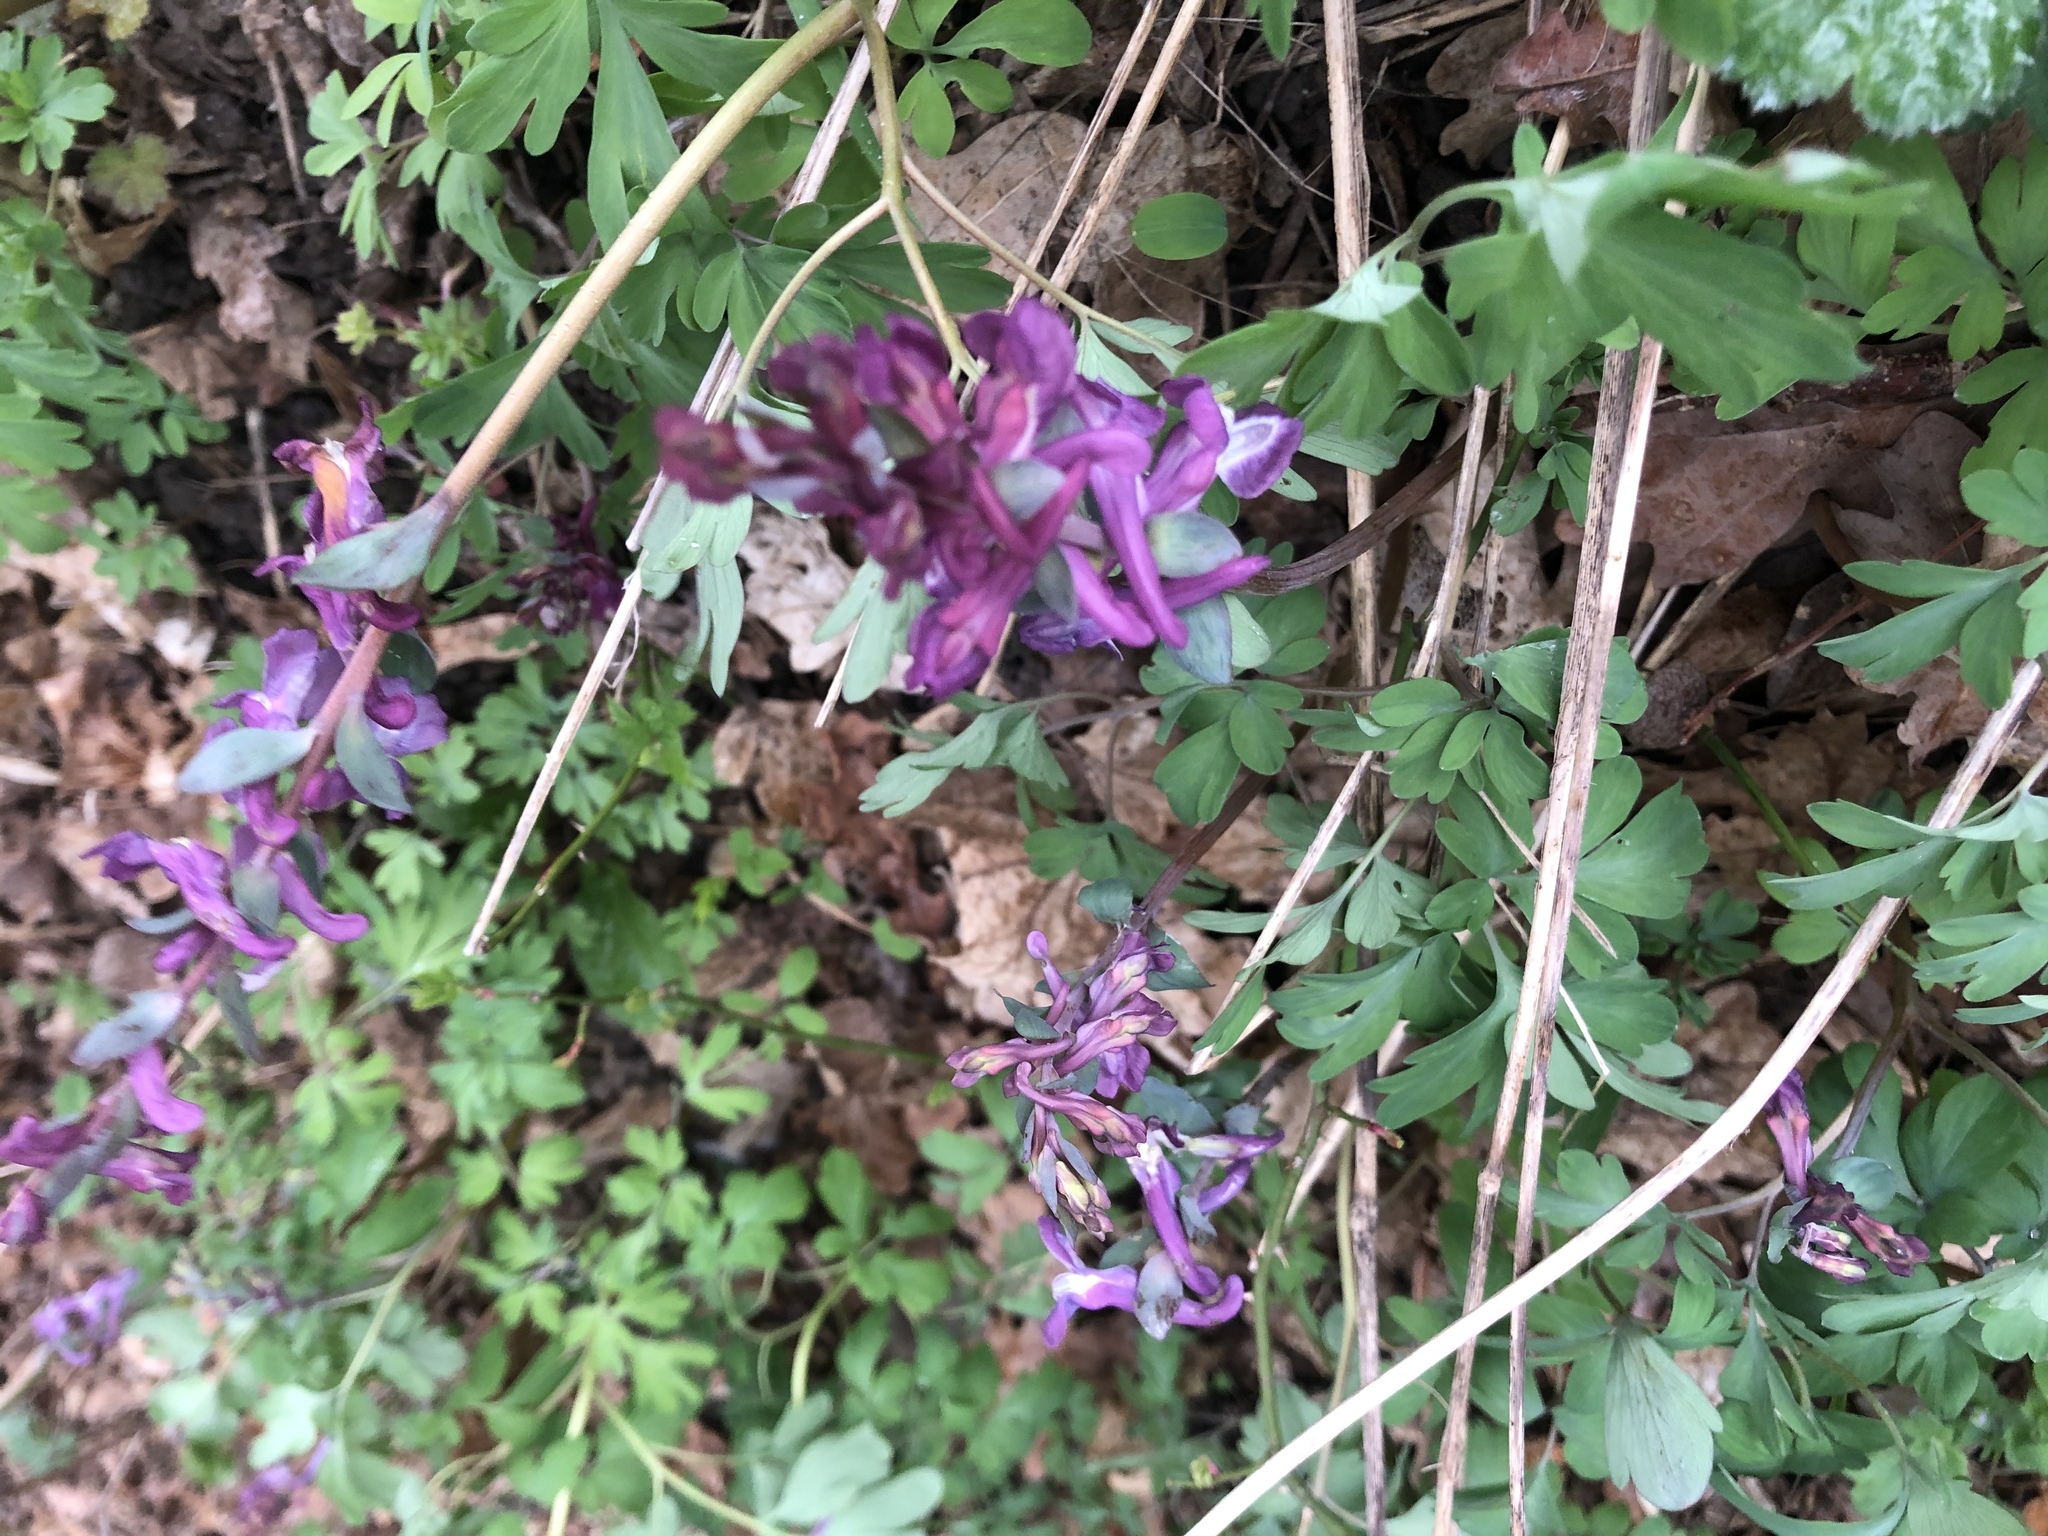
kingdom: Plantae
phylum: Tracheophyta
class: Magnoliopsida
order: Ranunculales
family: Papaveraceae
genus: Corydalis
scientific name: Corydalis cava
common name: Hollowroot
